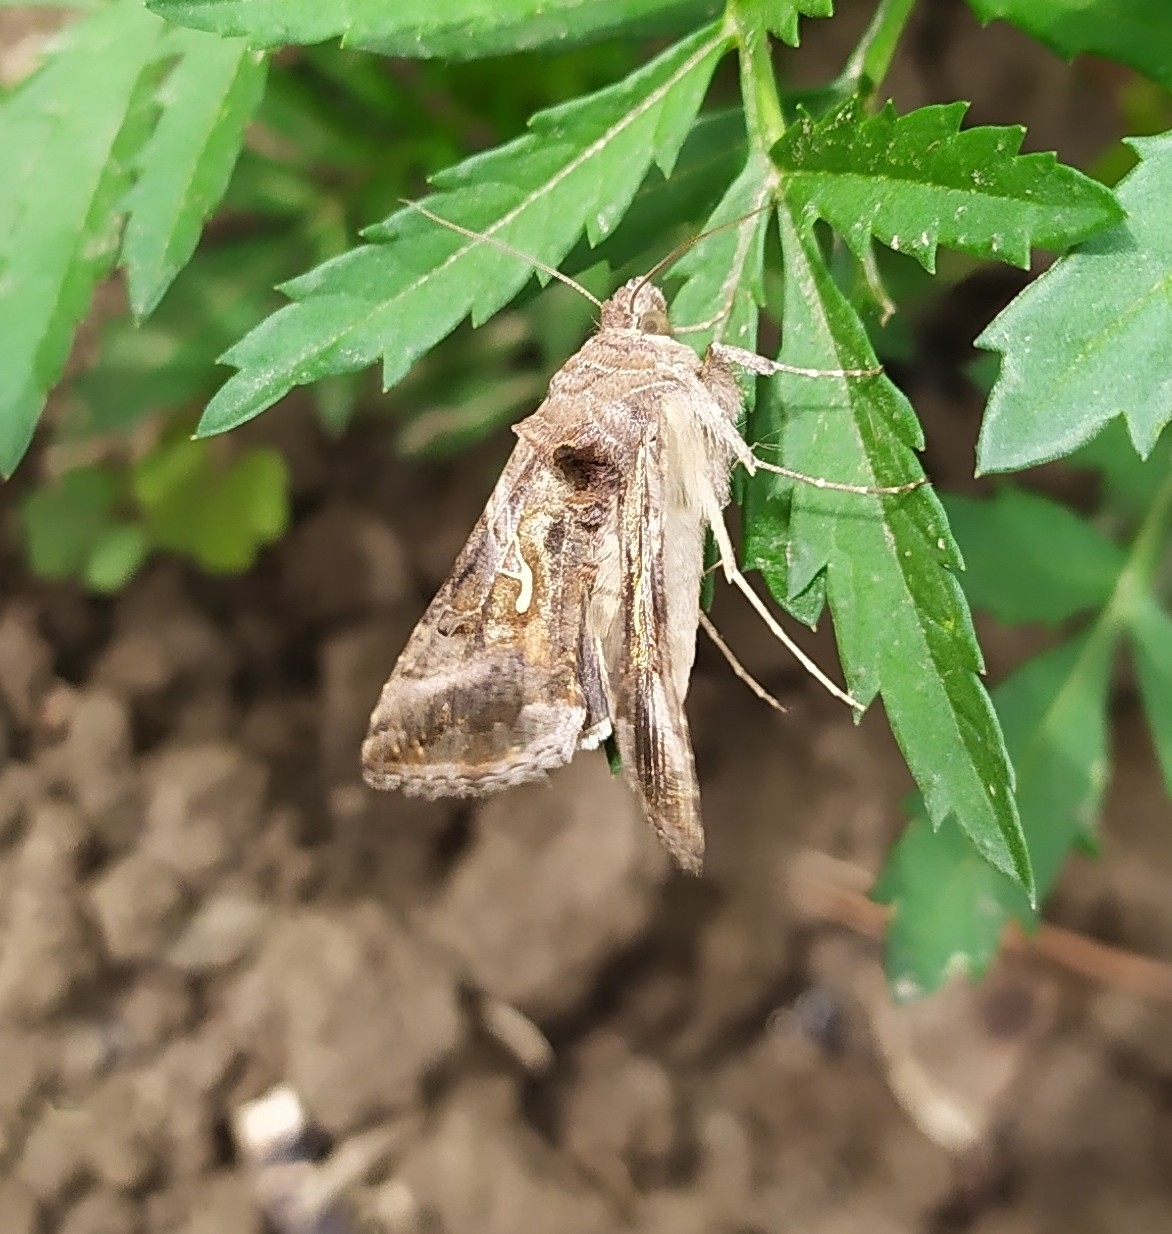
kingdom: Animalia
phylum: Arthropoda
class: Insecta
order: Lepidoptera
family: Noctuidae
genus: Autographa
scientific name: Autographa gamma
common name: Silver y
